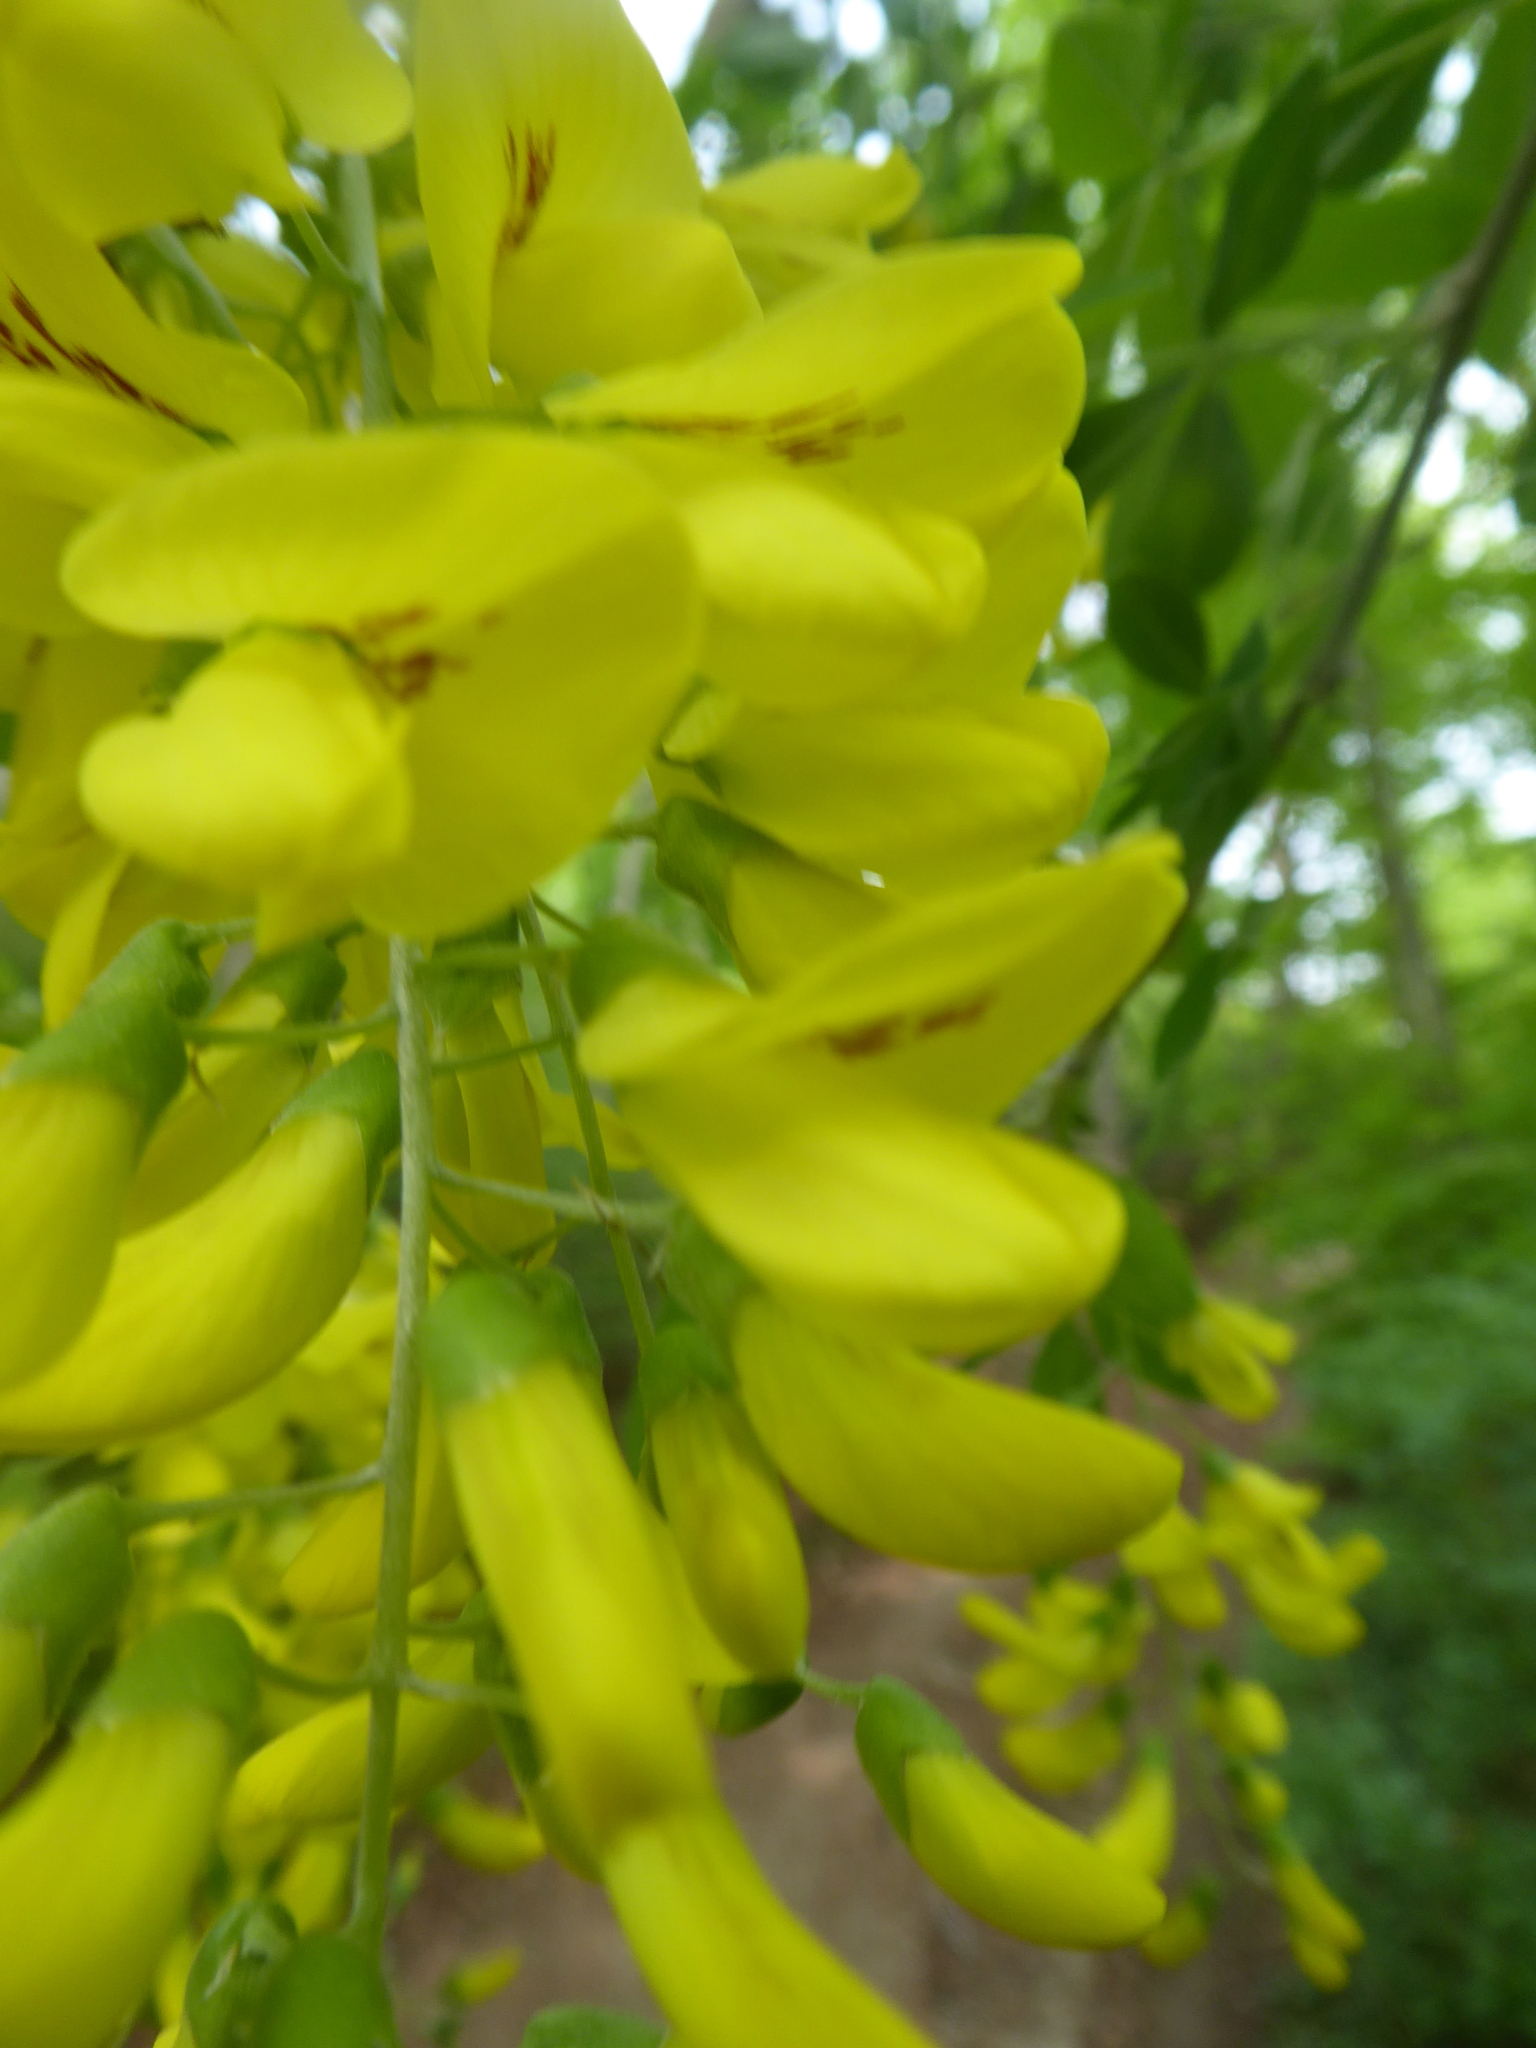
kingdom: Plantae
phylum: Tracheophyta
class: Magnoliopsida
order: Fabales
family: Fabaceae
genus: Laburnum
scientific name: Laburnum anagyroides
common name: Laburnum
